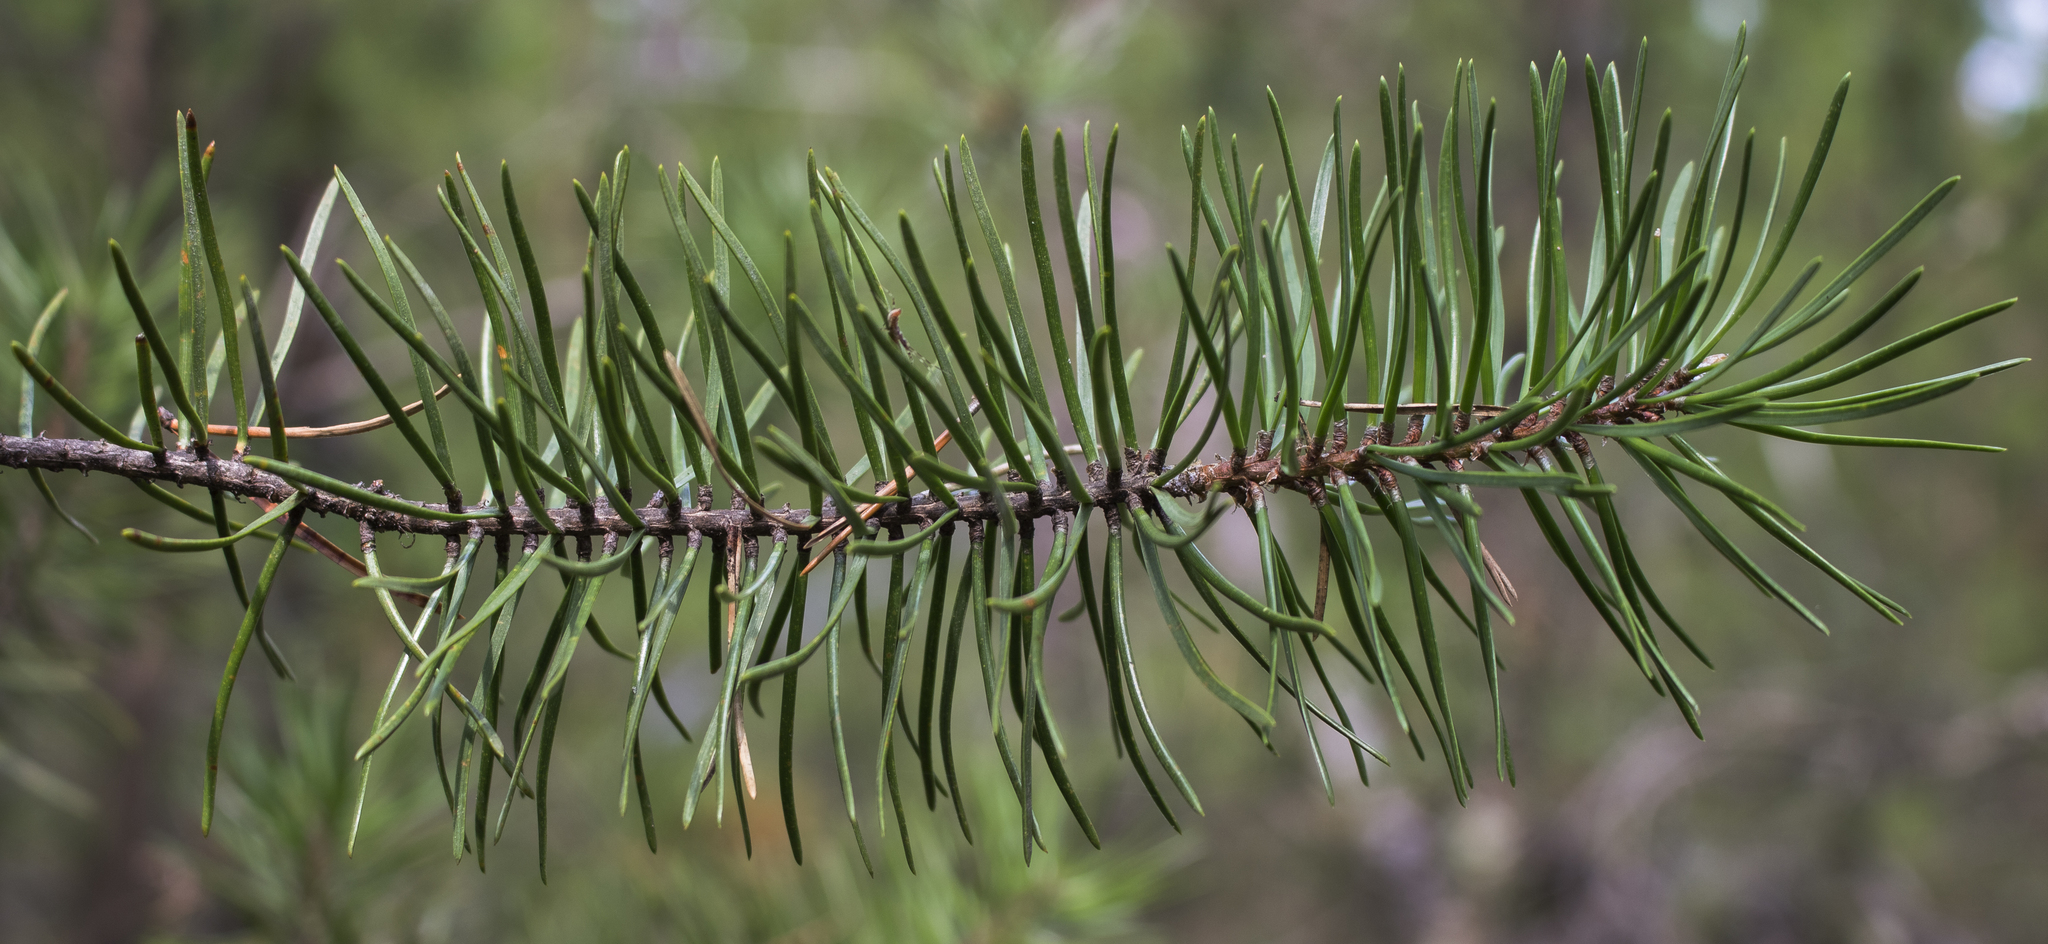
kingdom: Plantae
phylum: Tracheophyta
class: Pinopsida
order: Pinales
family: Pinaceae
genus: Pinus
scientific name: Pinus banksiana
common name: Jack pine
